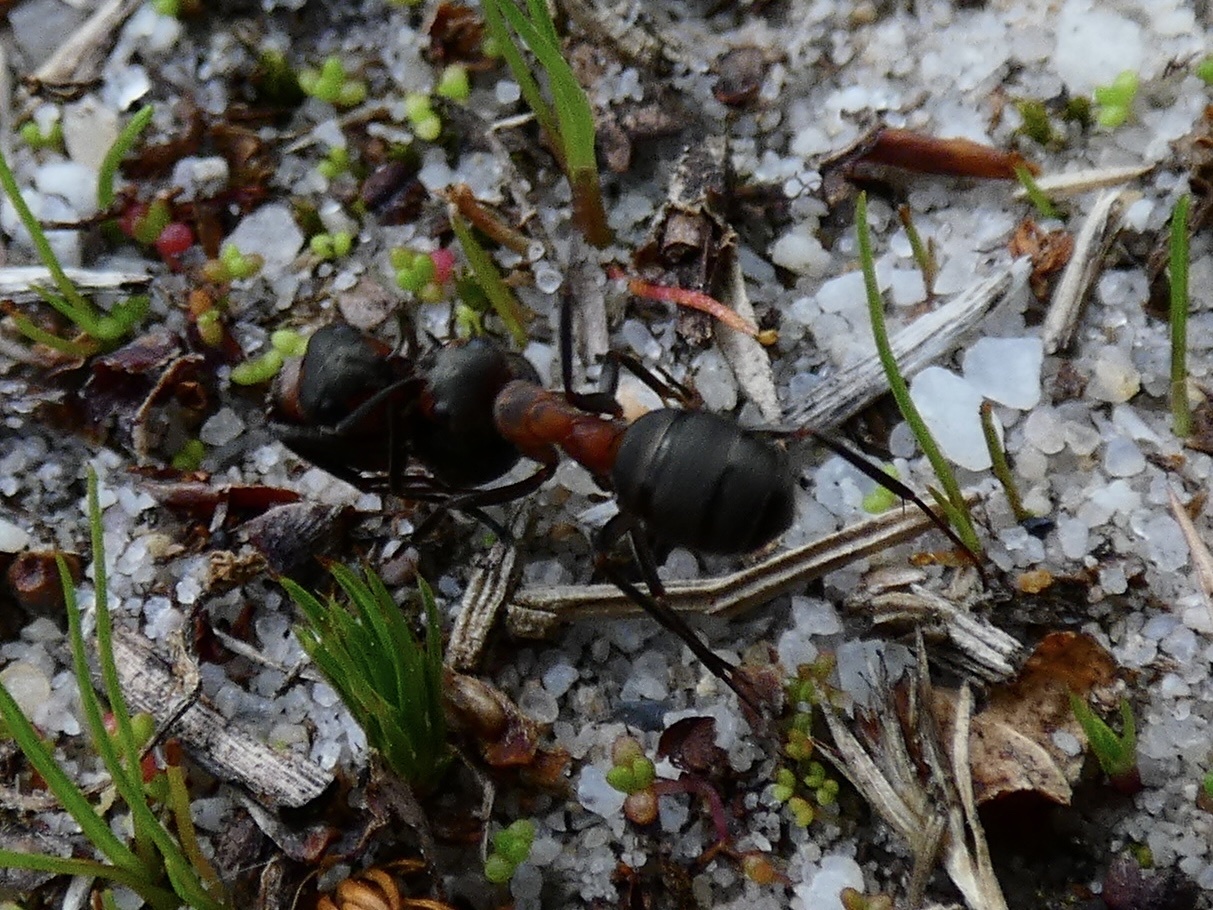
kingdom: Animalia
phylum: Arthropoda
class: Insecta
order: Hymenoptera
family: Formicidae
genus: Formica
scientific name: Formica
